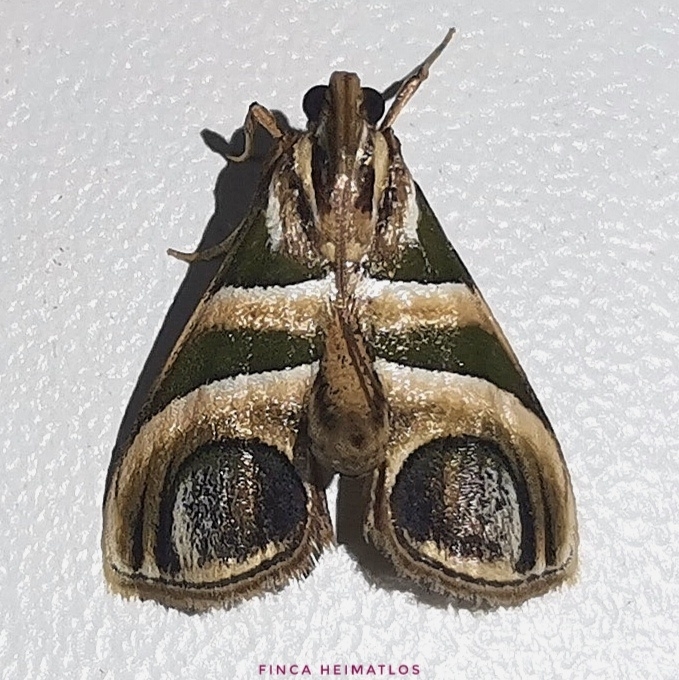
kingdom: Animalia
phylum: Arthropoda
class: Insecta
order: Lepidoptera
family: Pyralidae
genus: Incarcha
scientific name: Incarcha argentilinea
